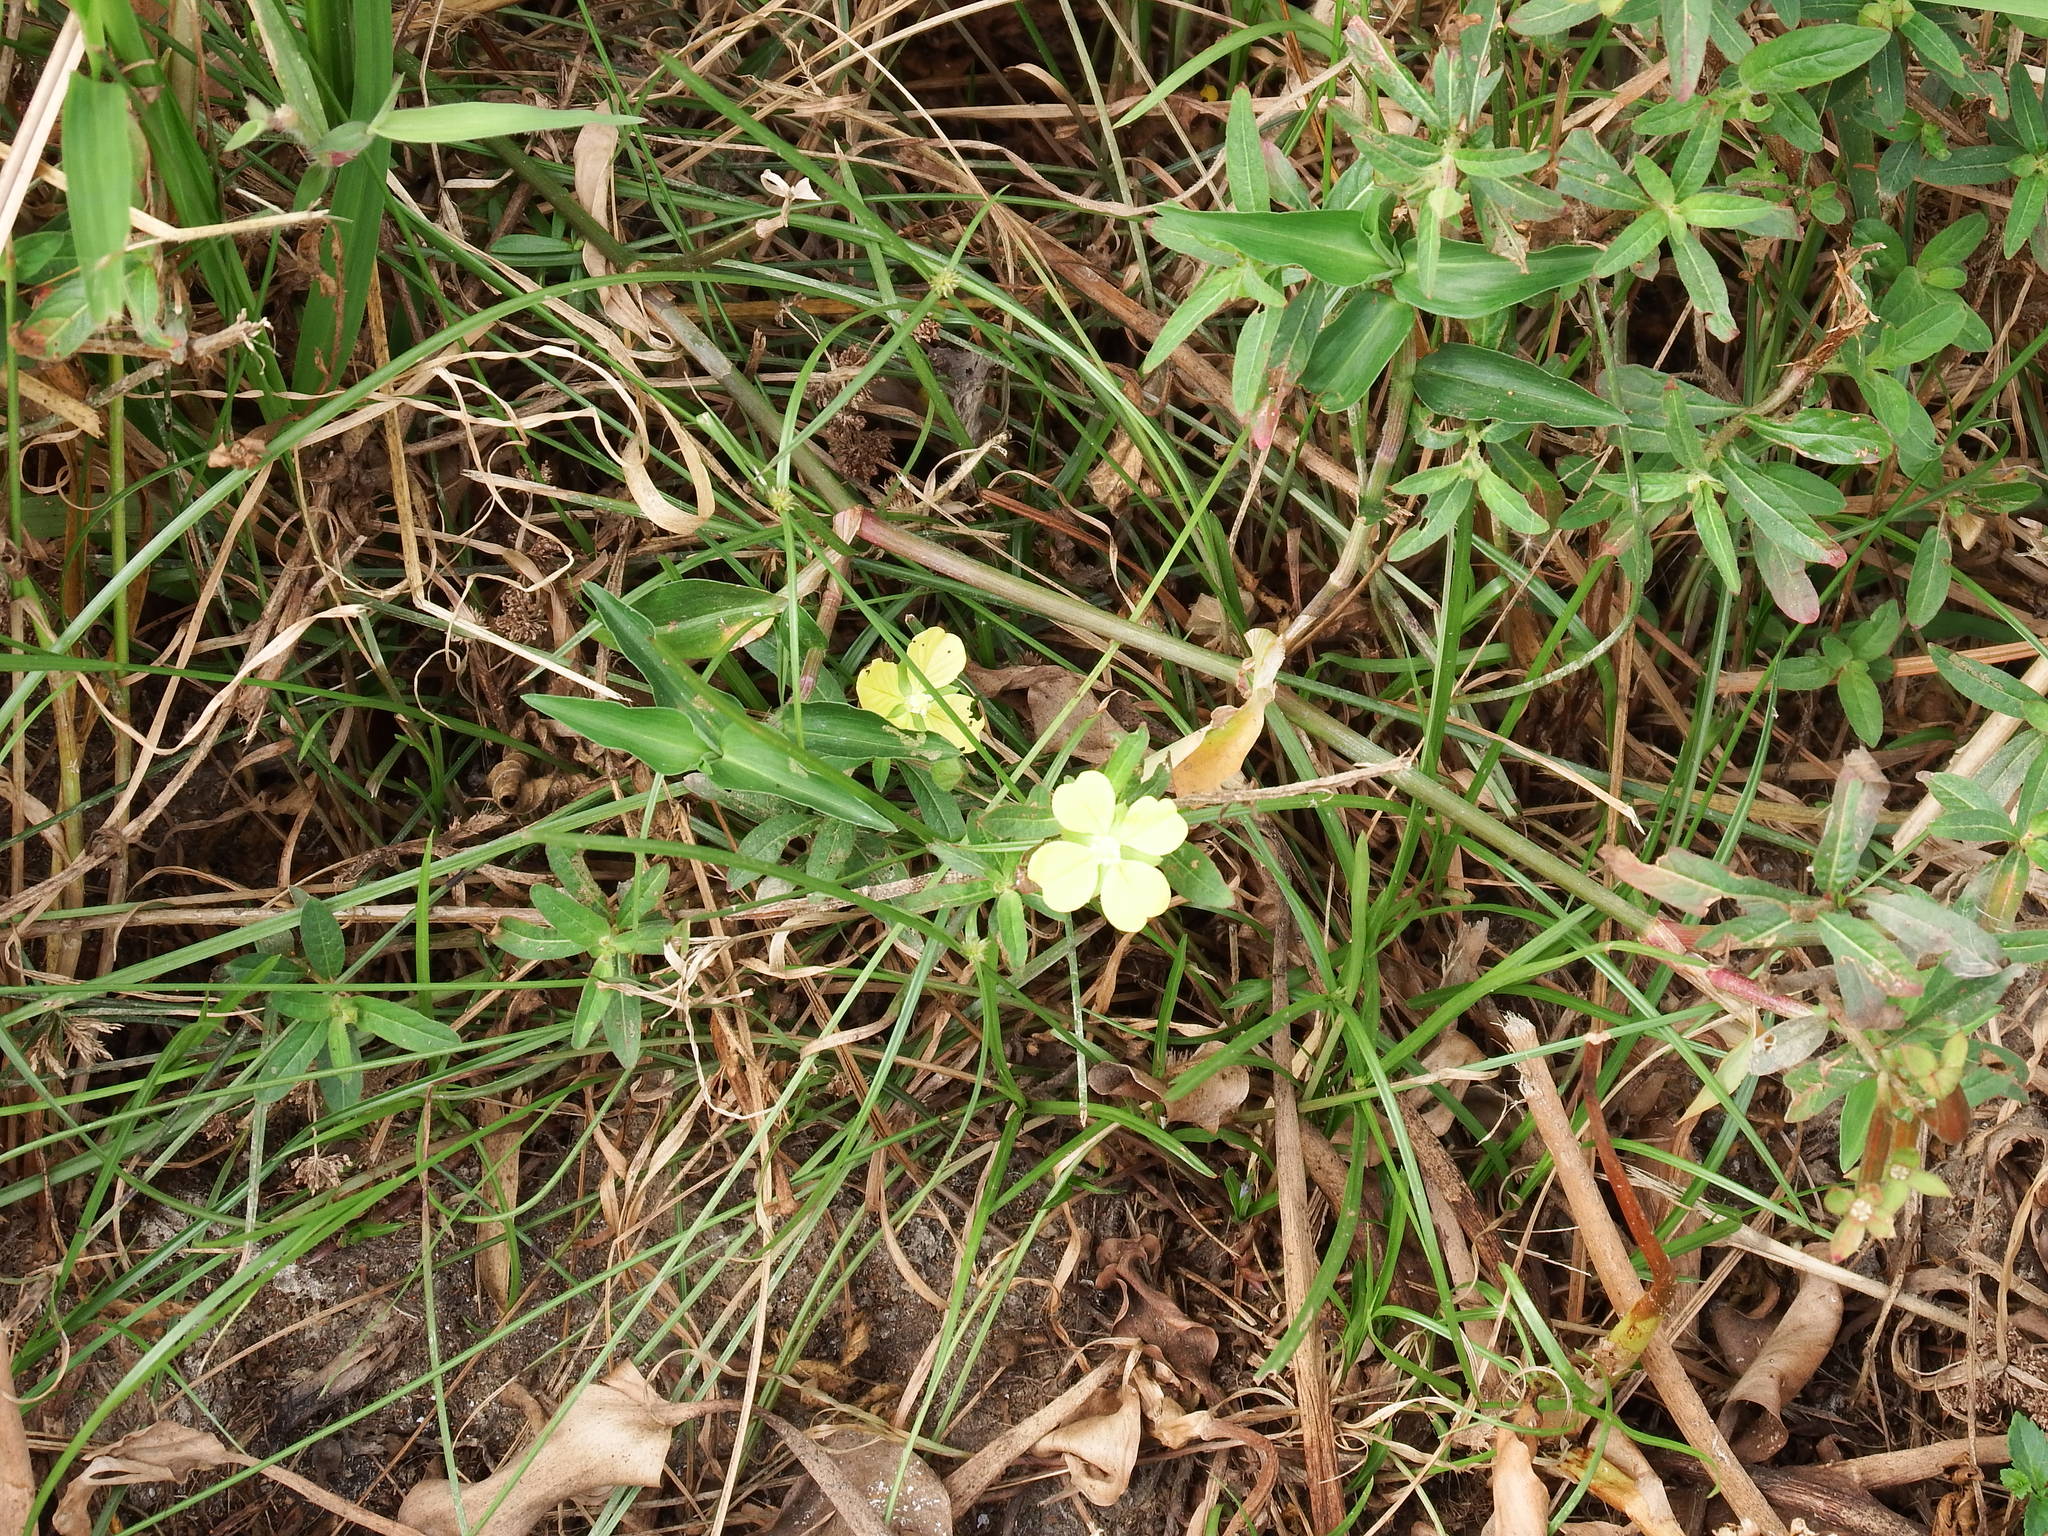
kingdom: Plantae
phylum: Tracheophyta
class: Magnoliopsida
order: Myrtales
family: Onagraceae
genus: Ludwigia
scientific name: Ludwigia octovalvis
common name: Water-primrose
